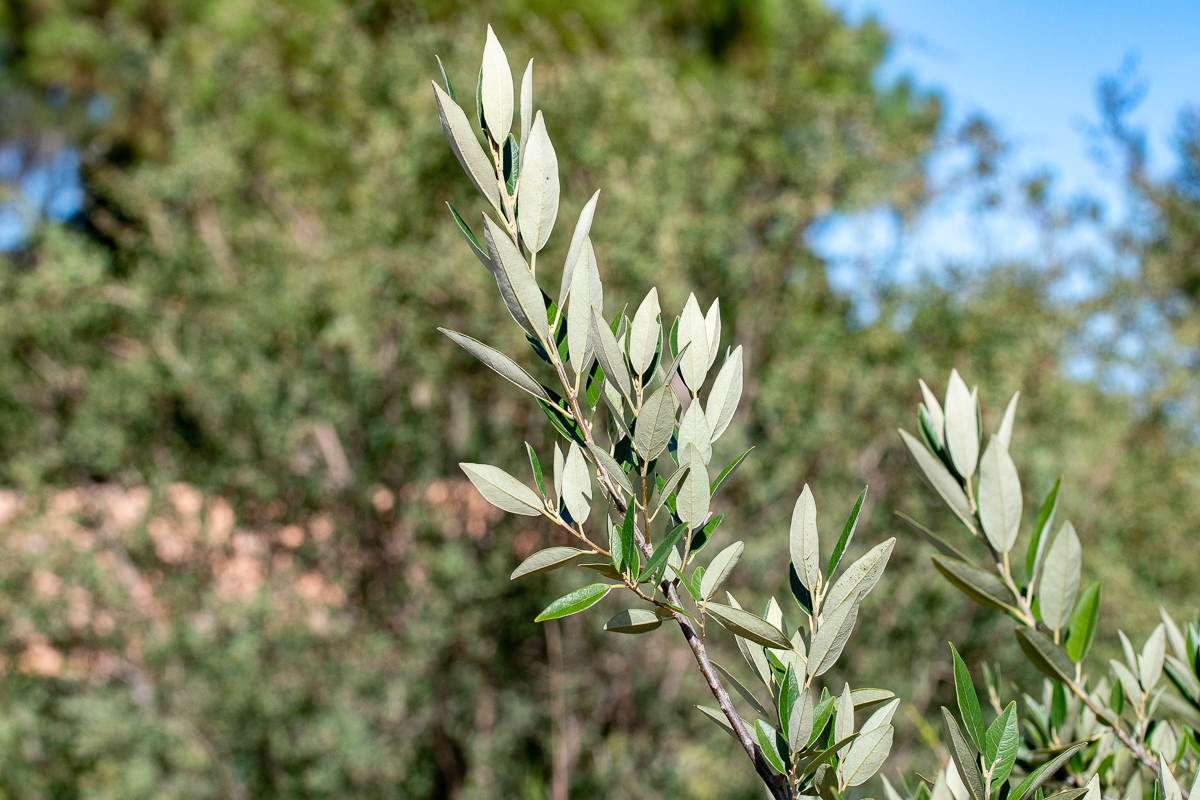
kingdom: Plantae
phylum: Tracheophyta
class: Magnoliopsida
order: Malpighiales
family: Achariaceae
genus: Kiggelaria
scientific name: Kiggelaria africana
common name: Wild peach
